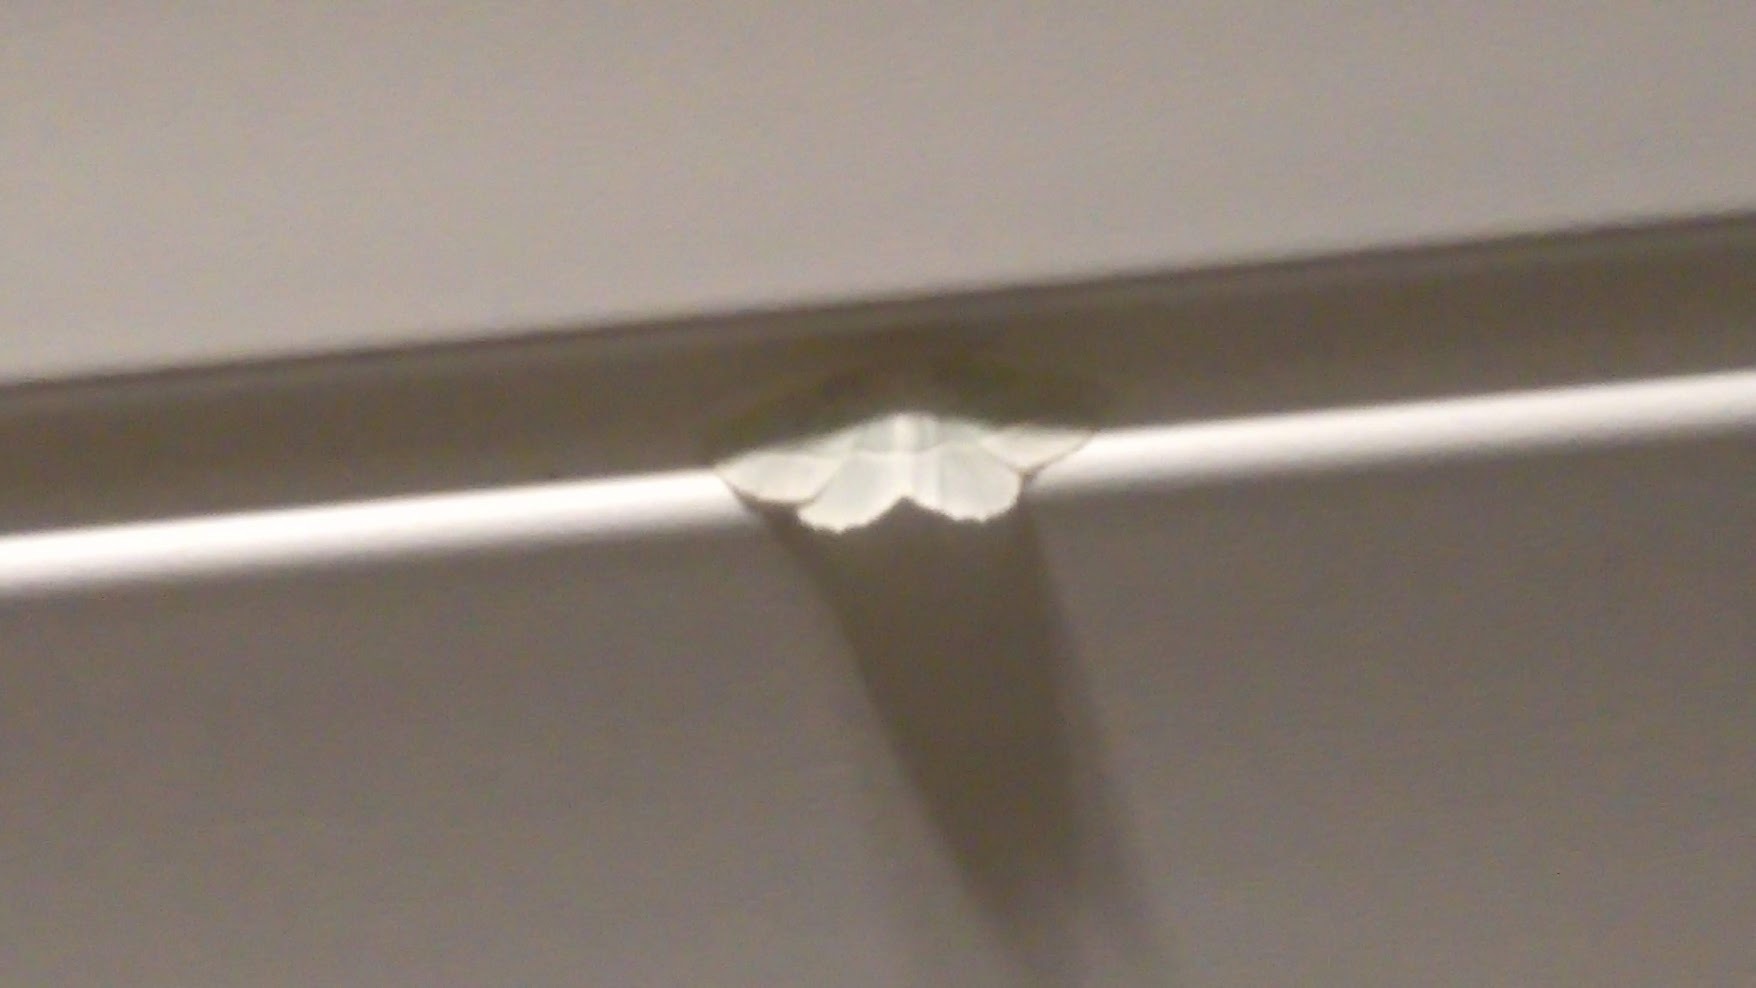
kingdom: Animalia
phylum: Arthropoda
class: Insecta
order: Lepidoptera
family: Geometridae
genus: Campaea
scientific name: Campaea perlata
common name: Fringed looper
